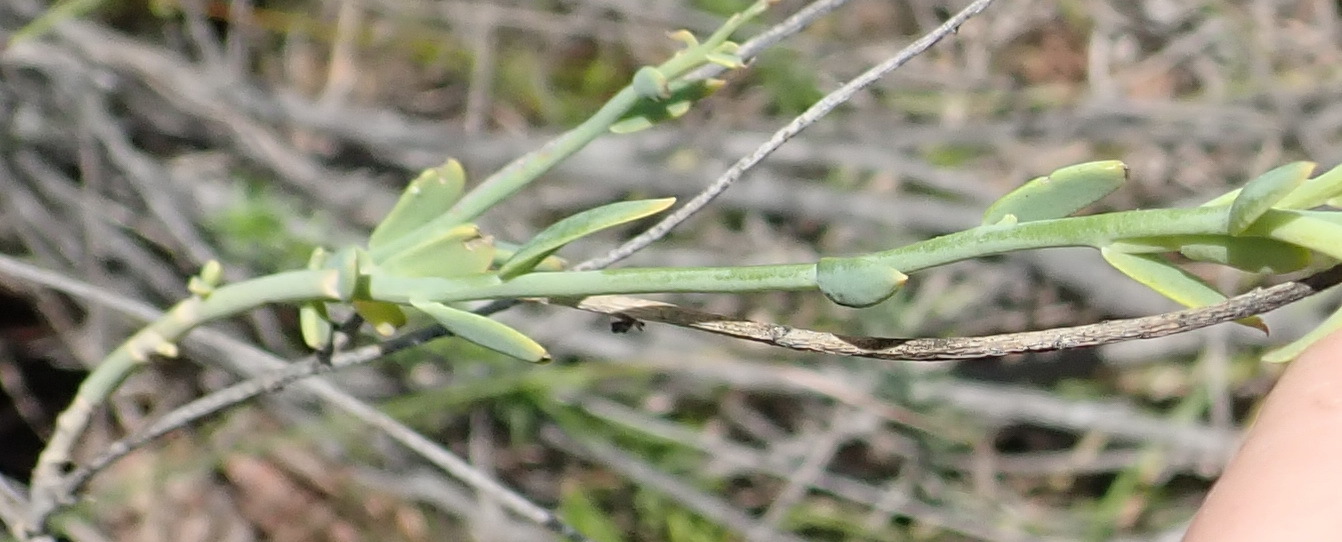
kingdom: Plantae
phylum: Tracheophyta
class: Magnoliopsida
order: Brassicales
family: Brassicaceae
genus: Heliophila
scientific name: Heliophila glauca
